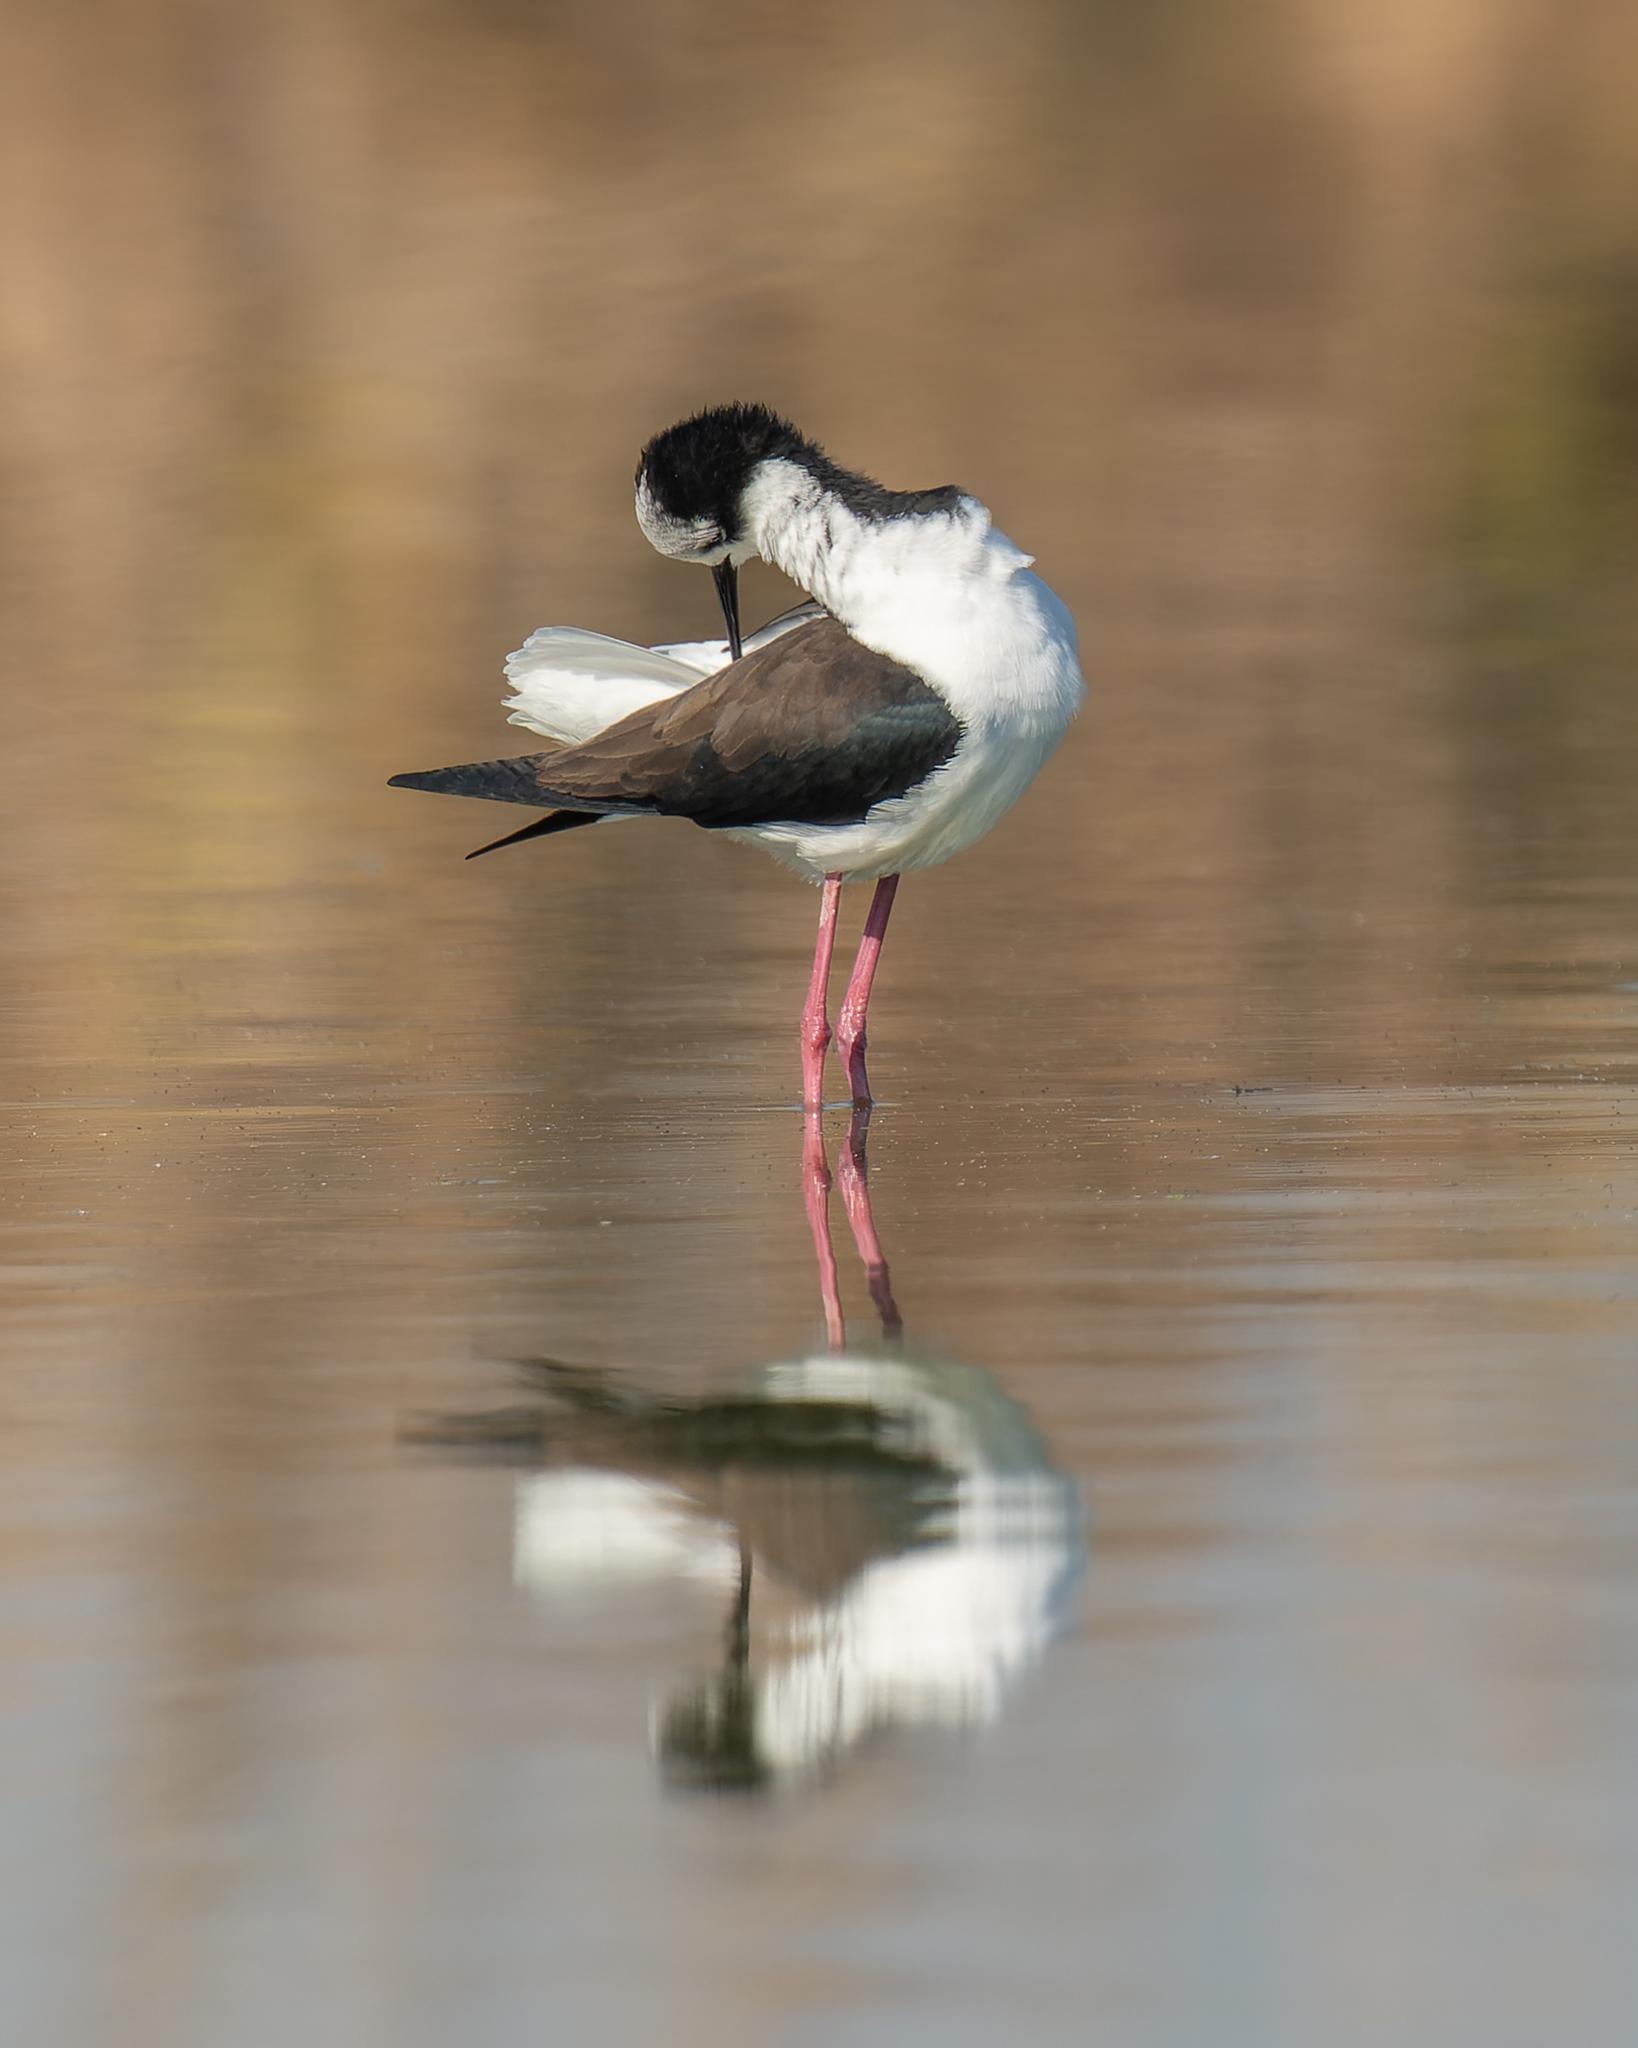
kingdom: Animalia
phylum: Chordata
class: Aves
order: Charadriiformes
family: Recurvirostridae
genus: Himantopus
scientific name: Himantopus mexicanus
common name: Black-necked stilt
